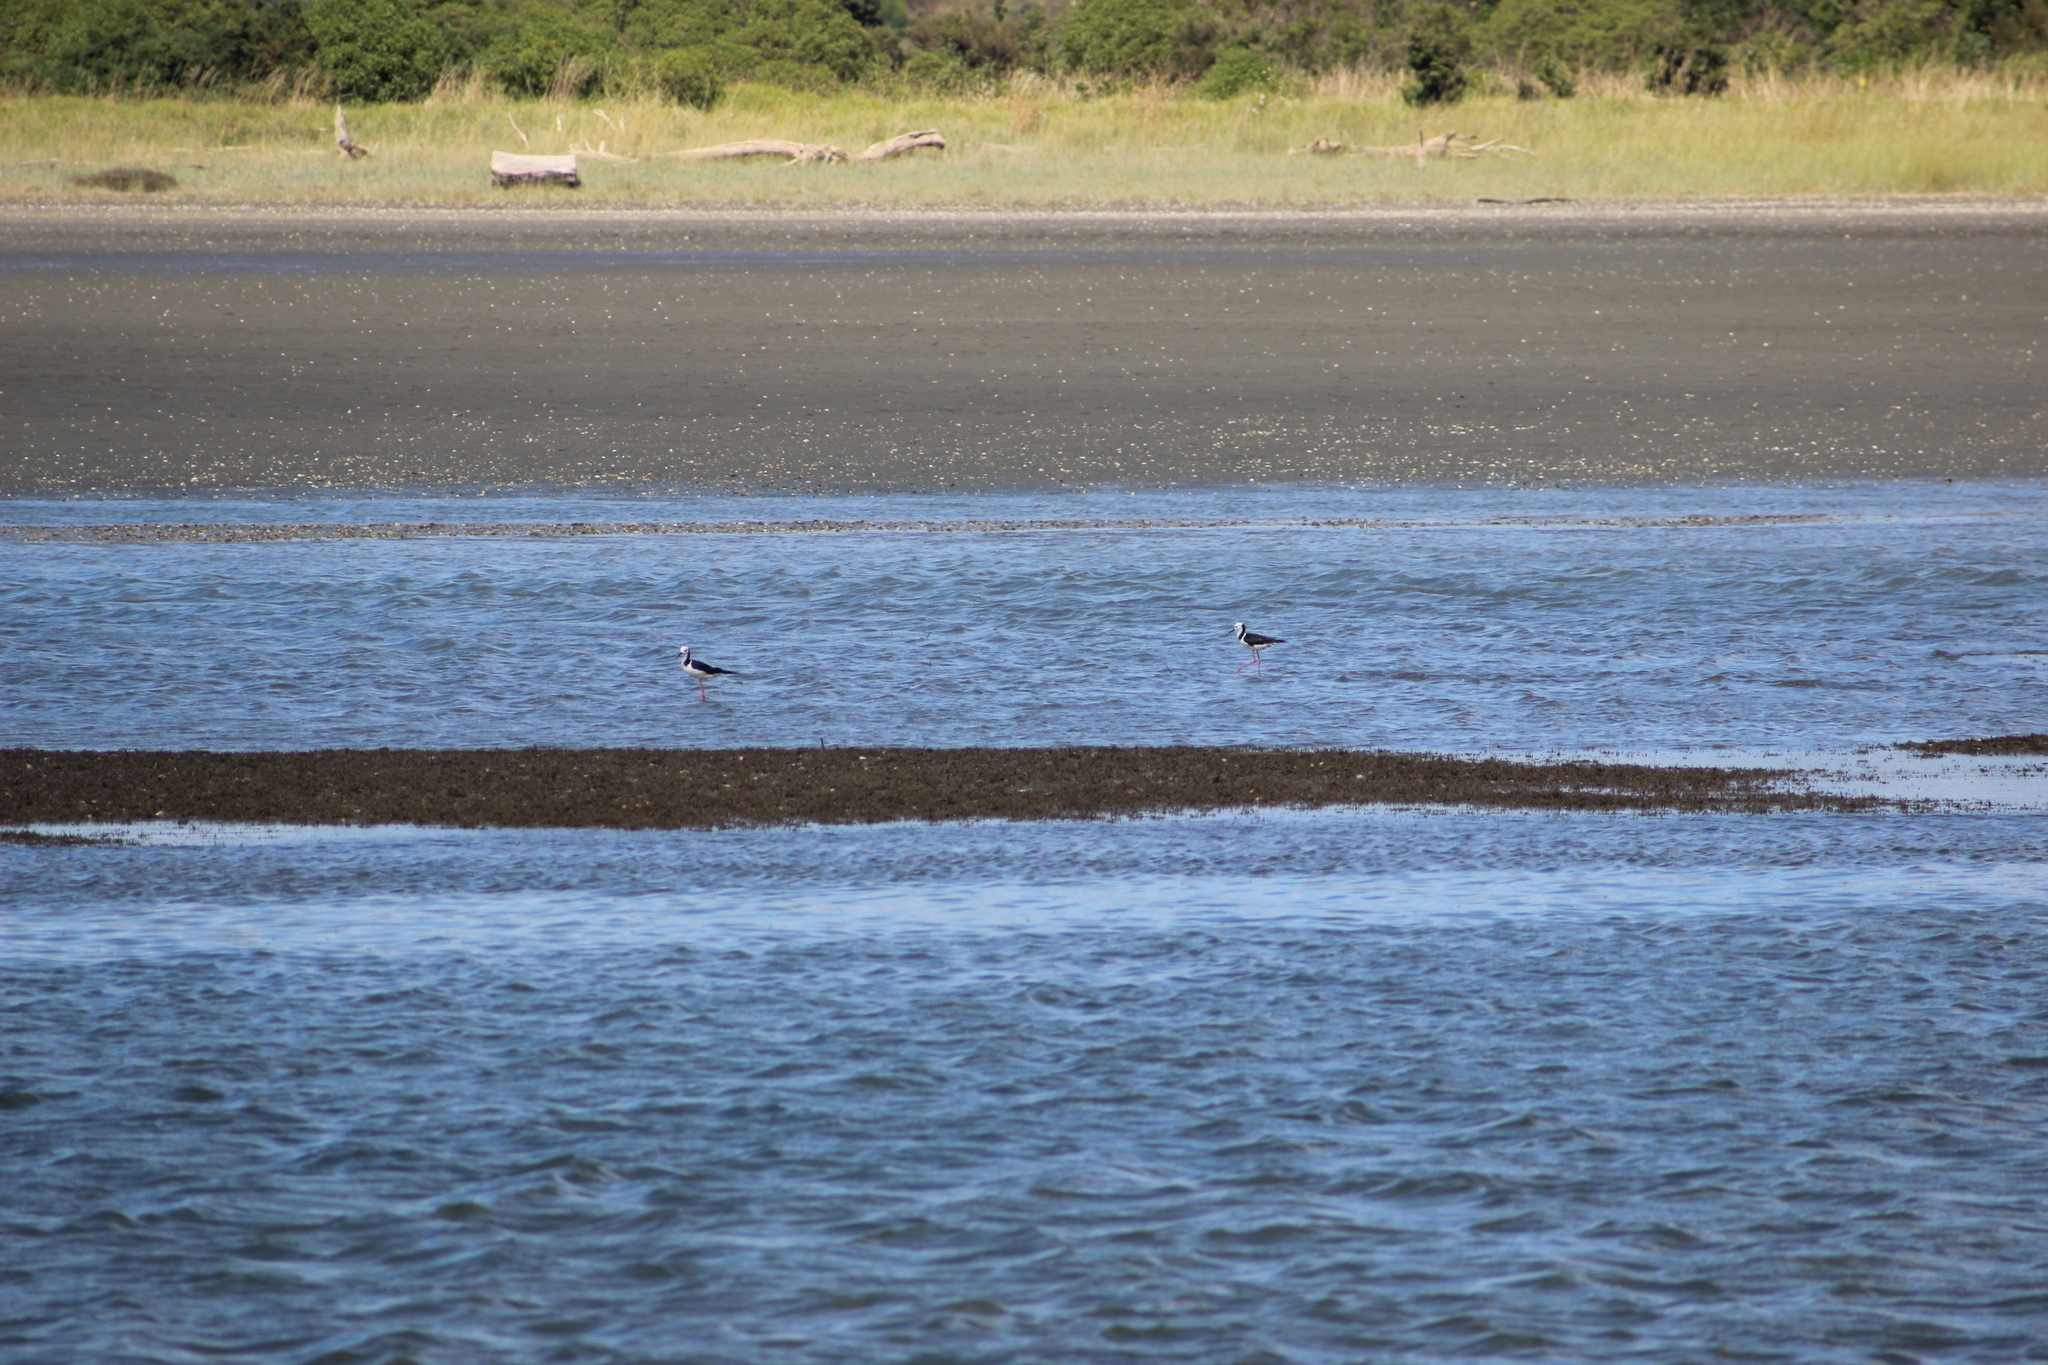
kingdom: Animalia
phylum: Chordata
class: Aves
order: Charadriiformes
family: Recurvirostridae
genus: Himantopus
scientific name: Himantopus leucocephalus
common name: White-headed stilt
